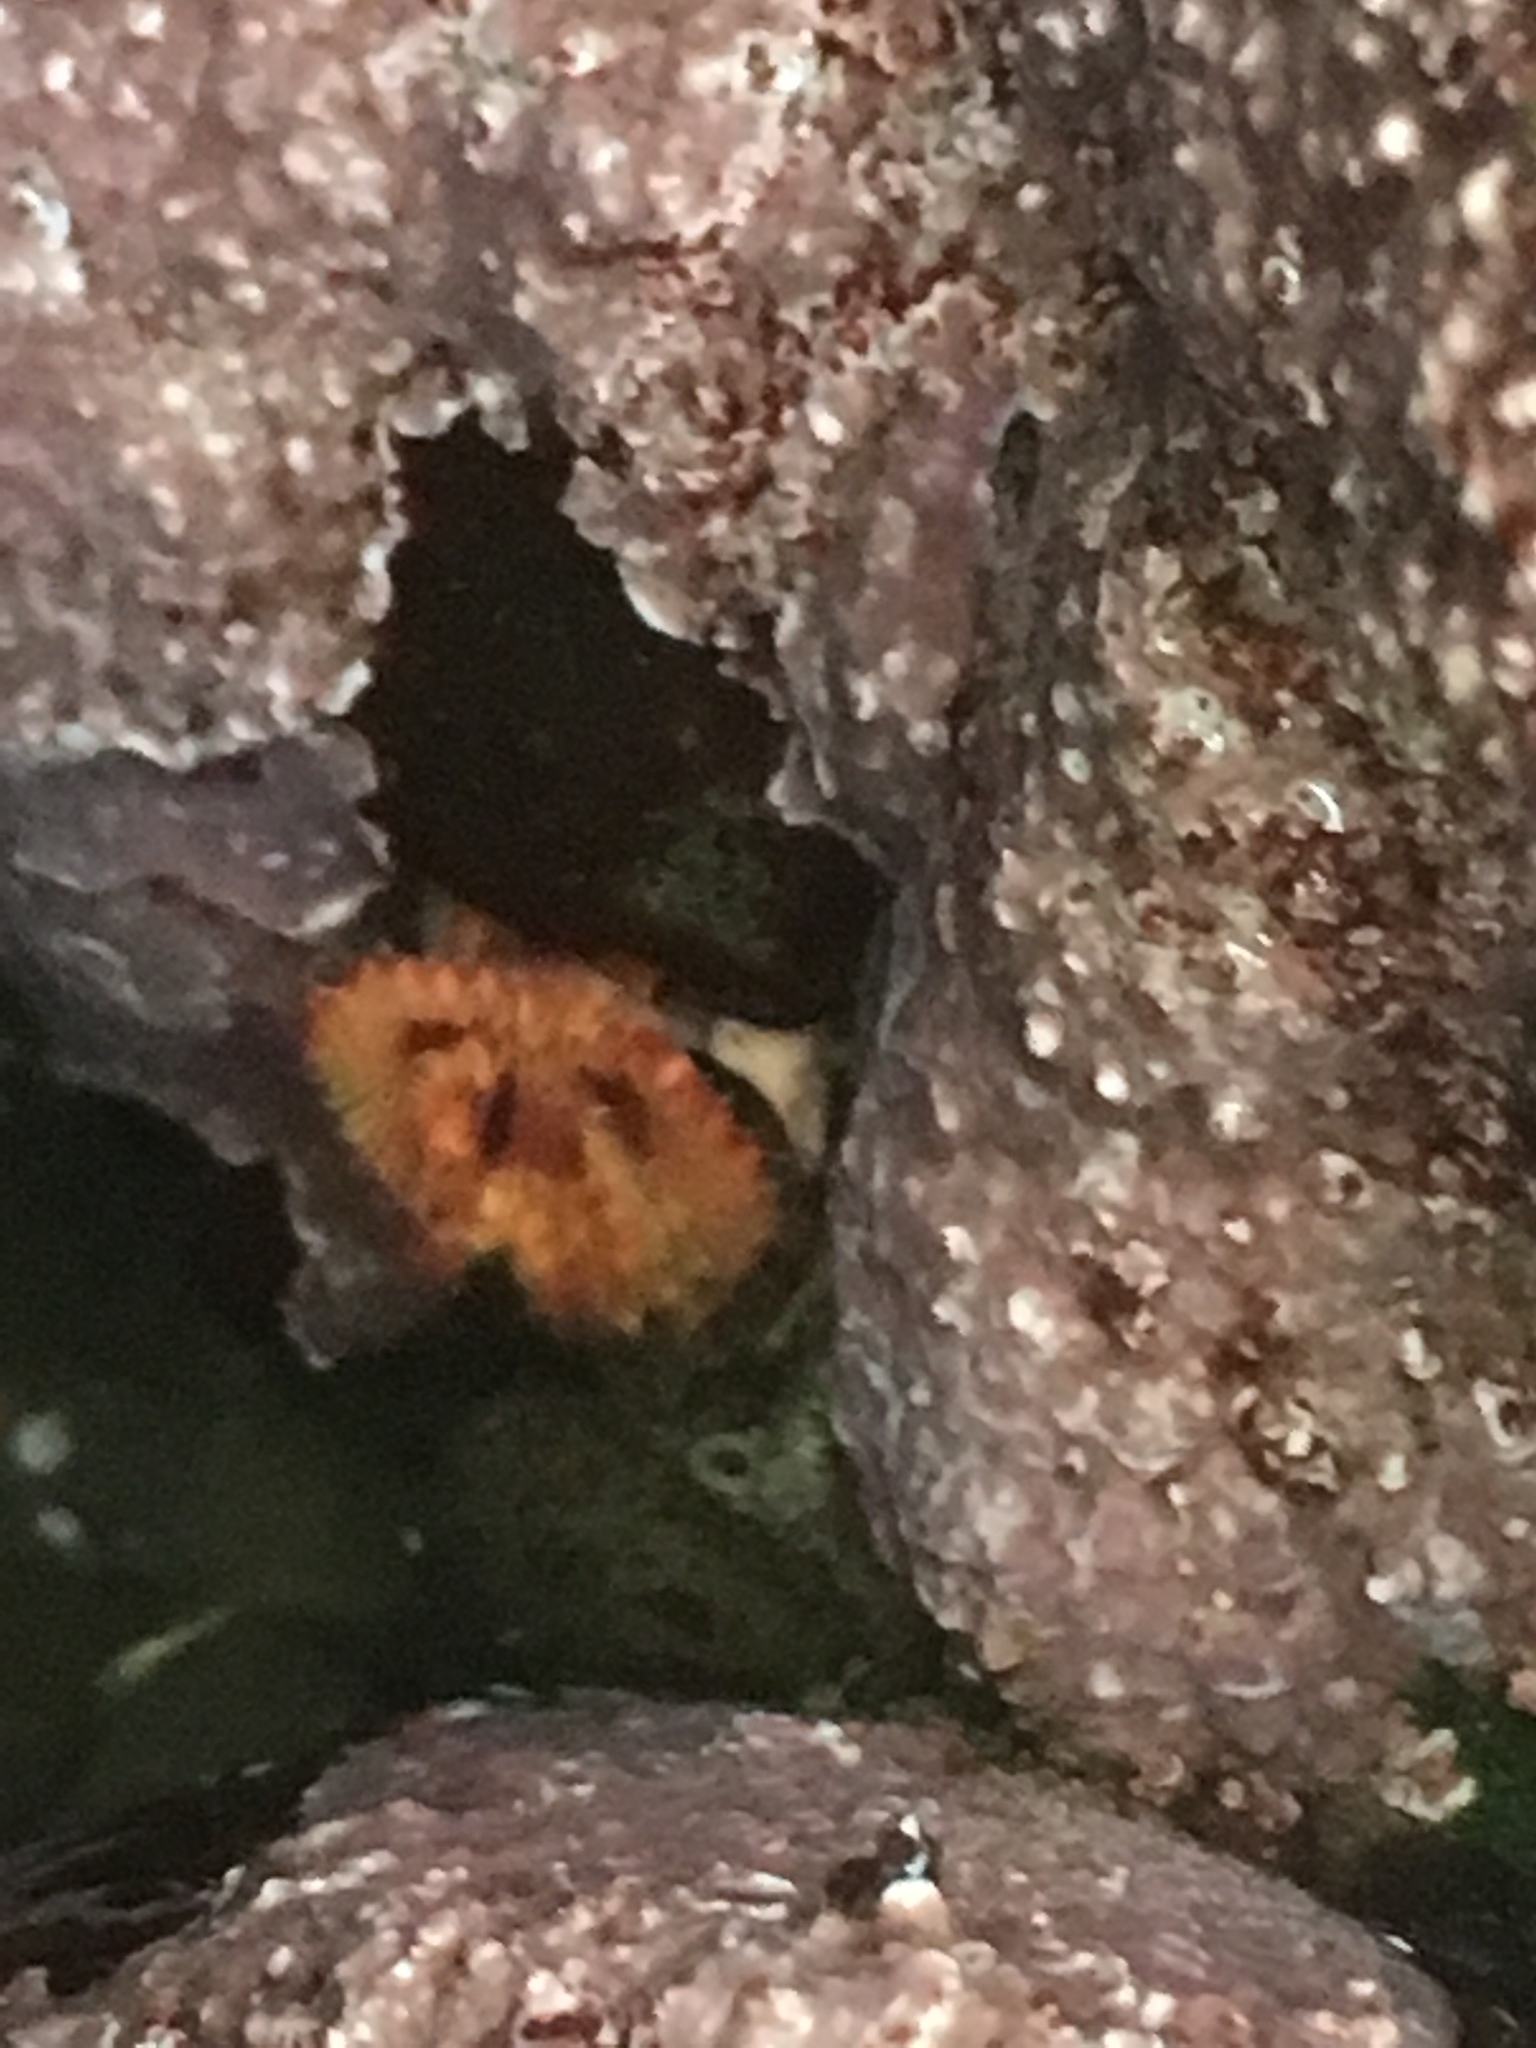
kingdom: Animalia
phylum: Annelida
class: Polychaeta
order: Sabellida
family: Serpulidae
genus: Serpula
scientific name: Serpula columbiana
